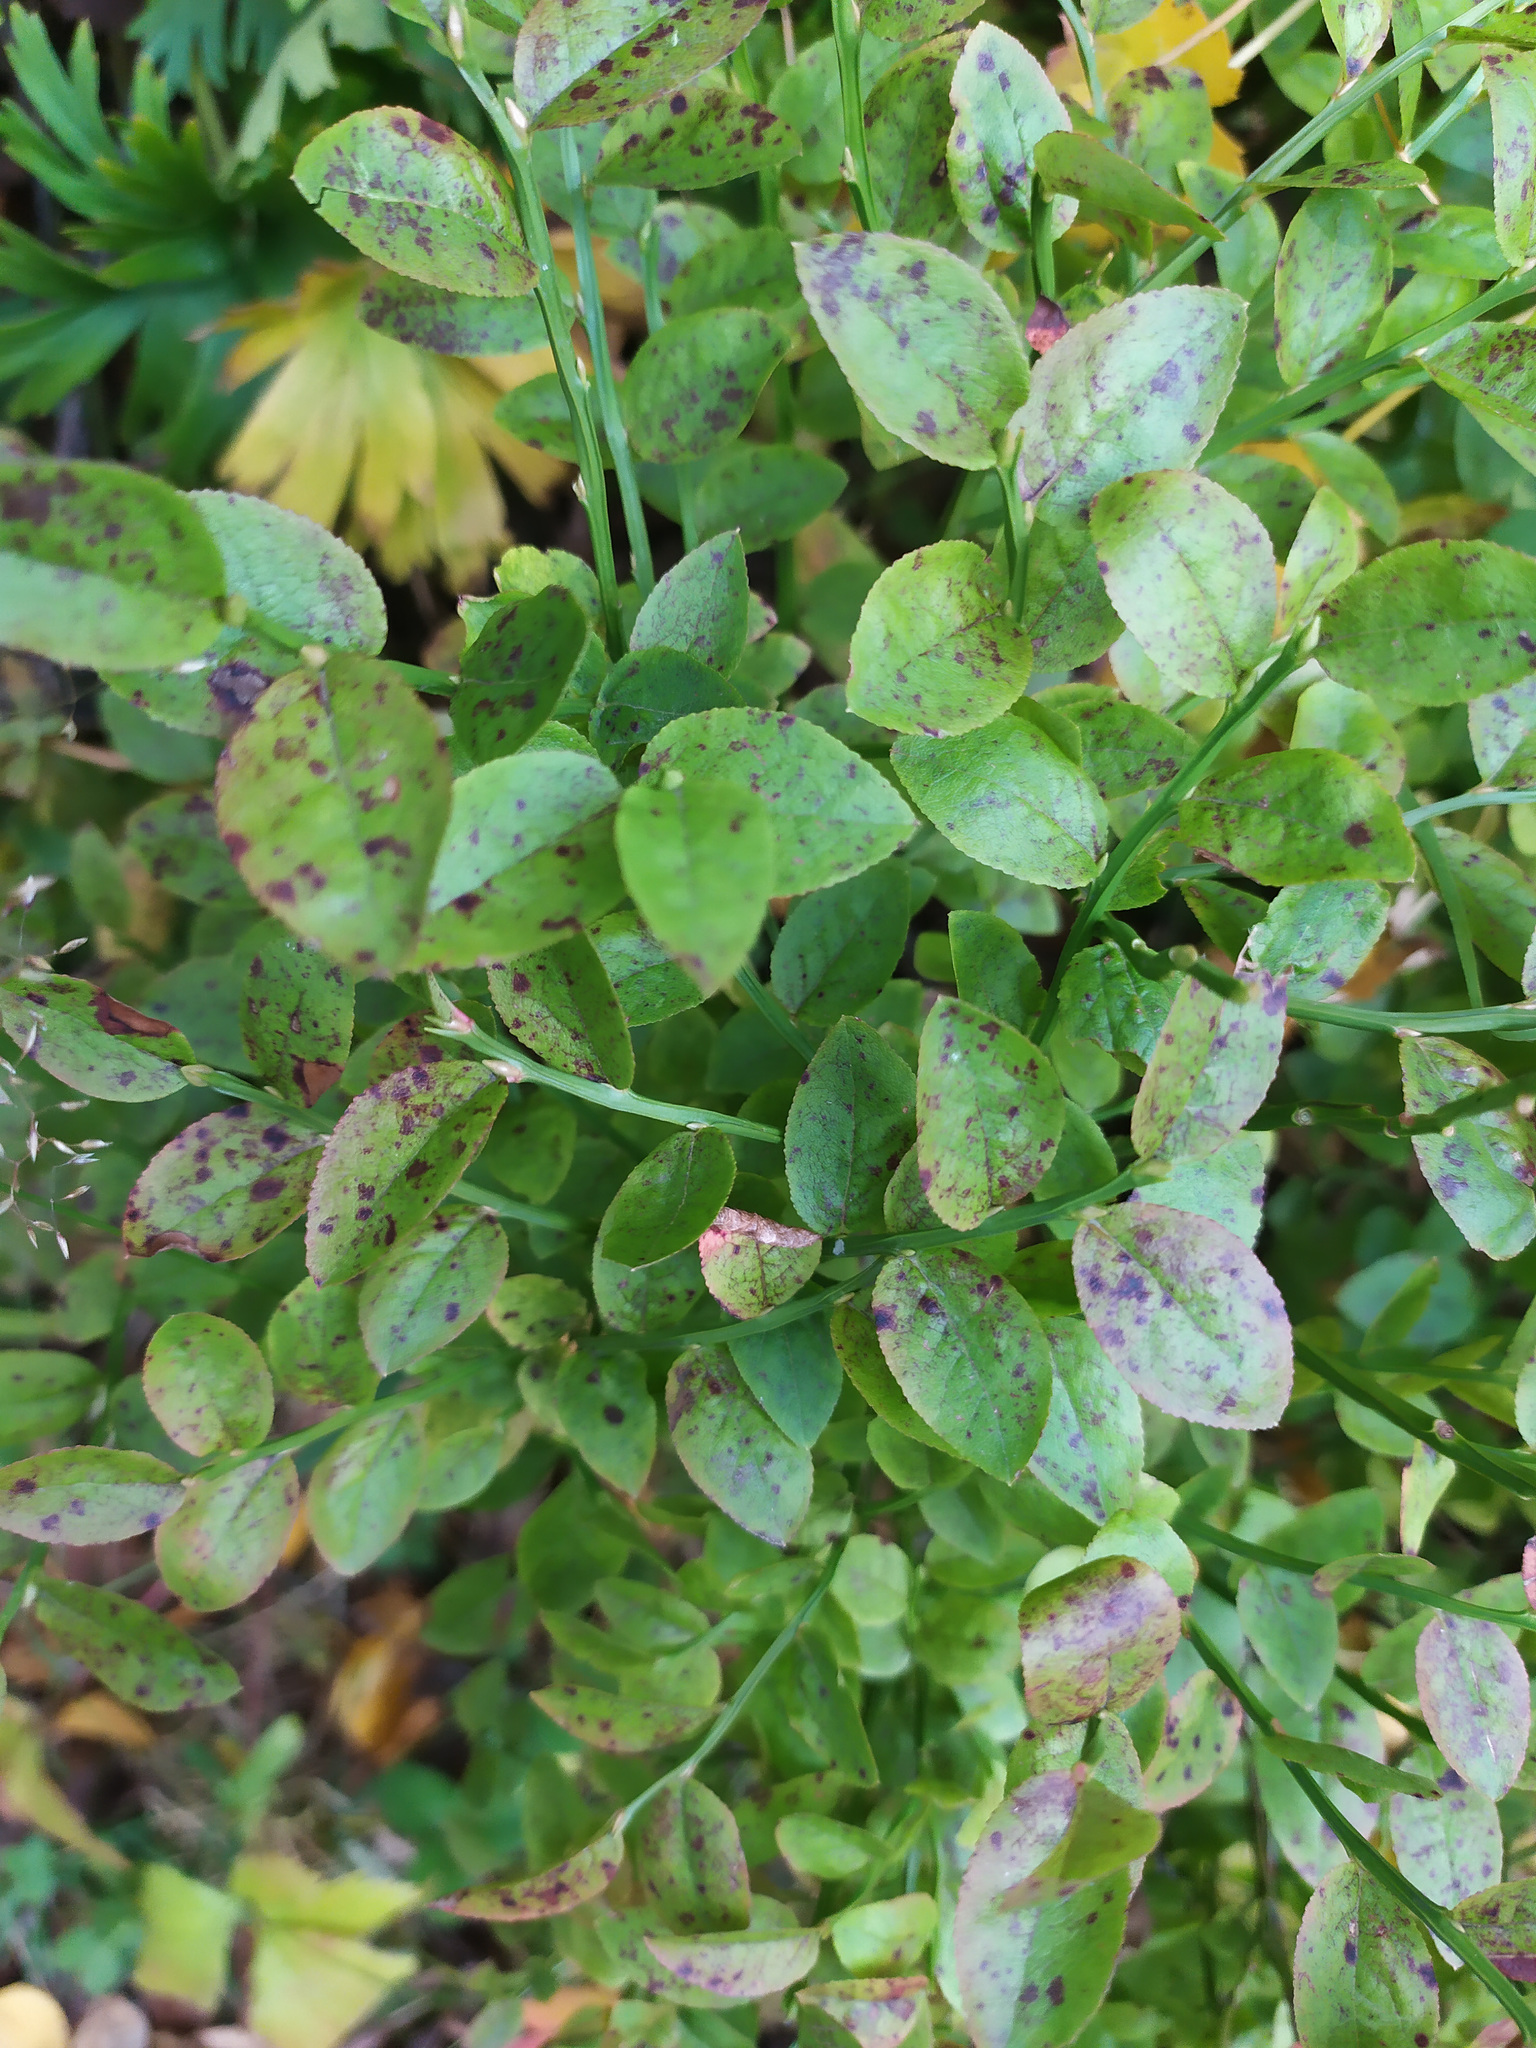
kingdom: Plantae
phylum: Tracheophyta
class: Magnoliopsida
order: Ericales
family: Ericaceae
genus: Vaccinium
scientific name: Vaccinium myrtillus
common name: Bilberry
